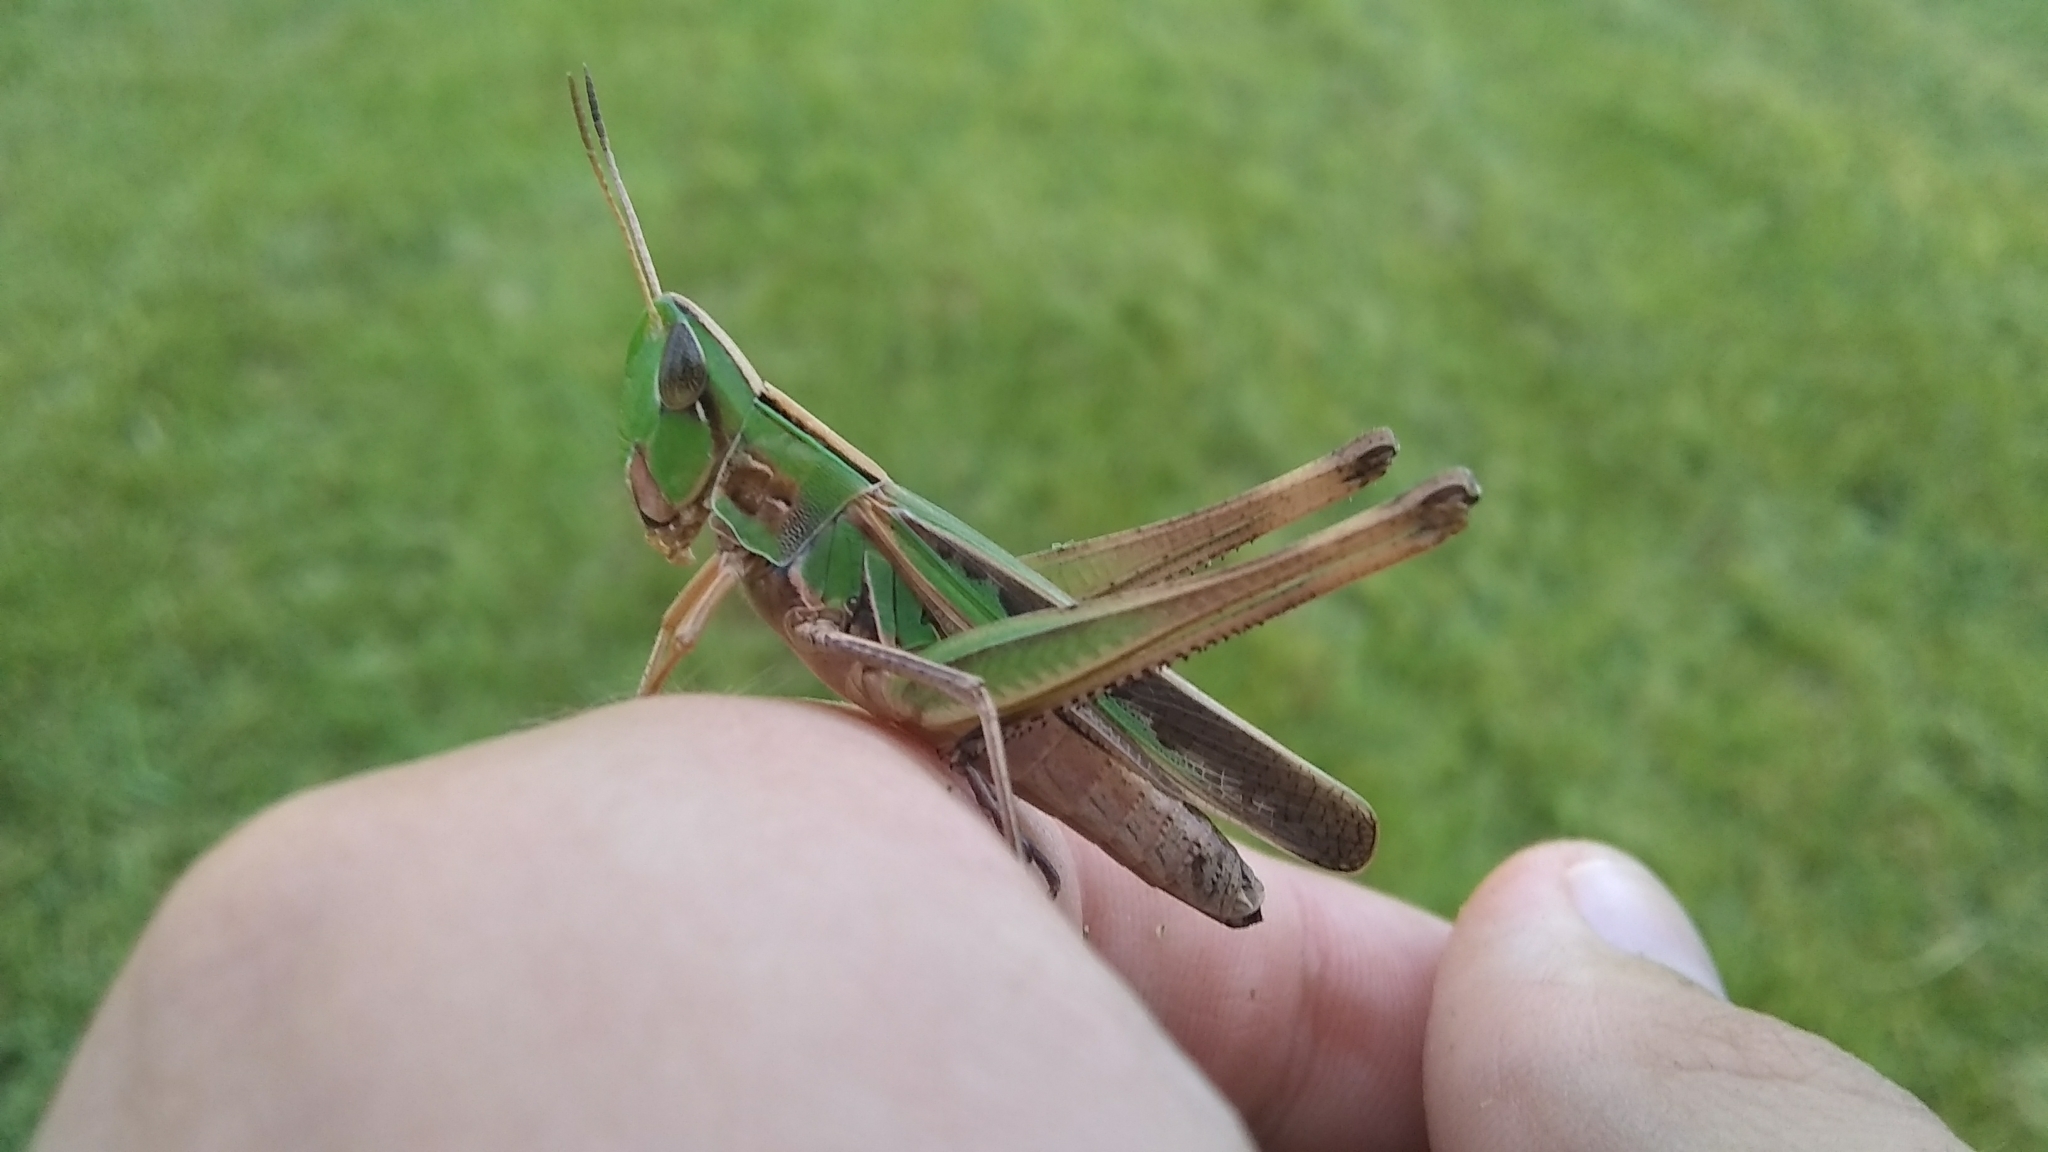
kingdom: Animalia
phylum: Arthropoda
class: Insecta
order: Orthoptera
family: Acrididae
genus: Syrbula
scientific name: Syrbula admirabilis
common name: Handsome grasshopper
